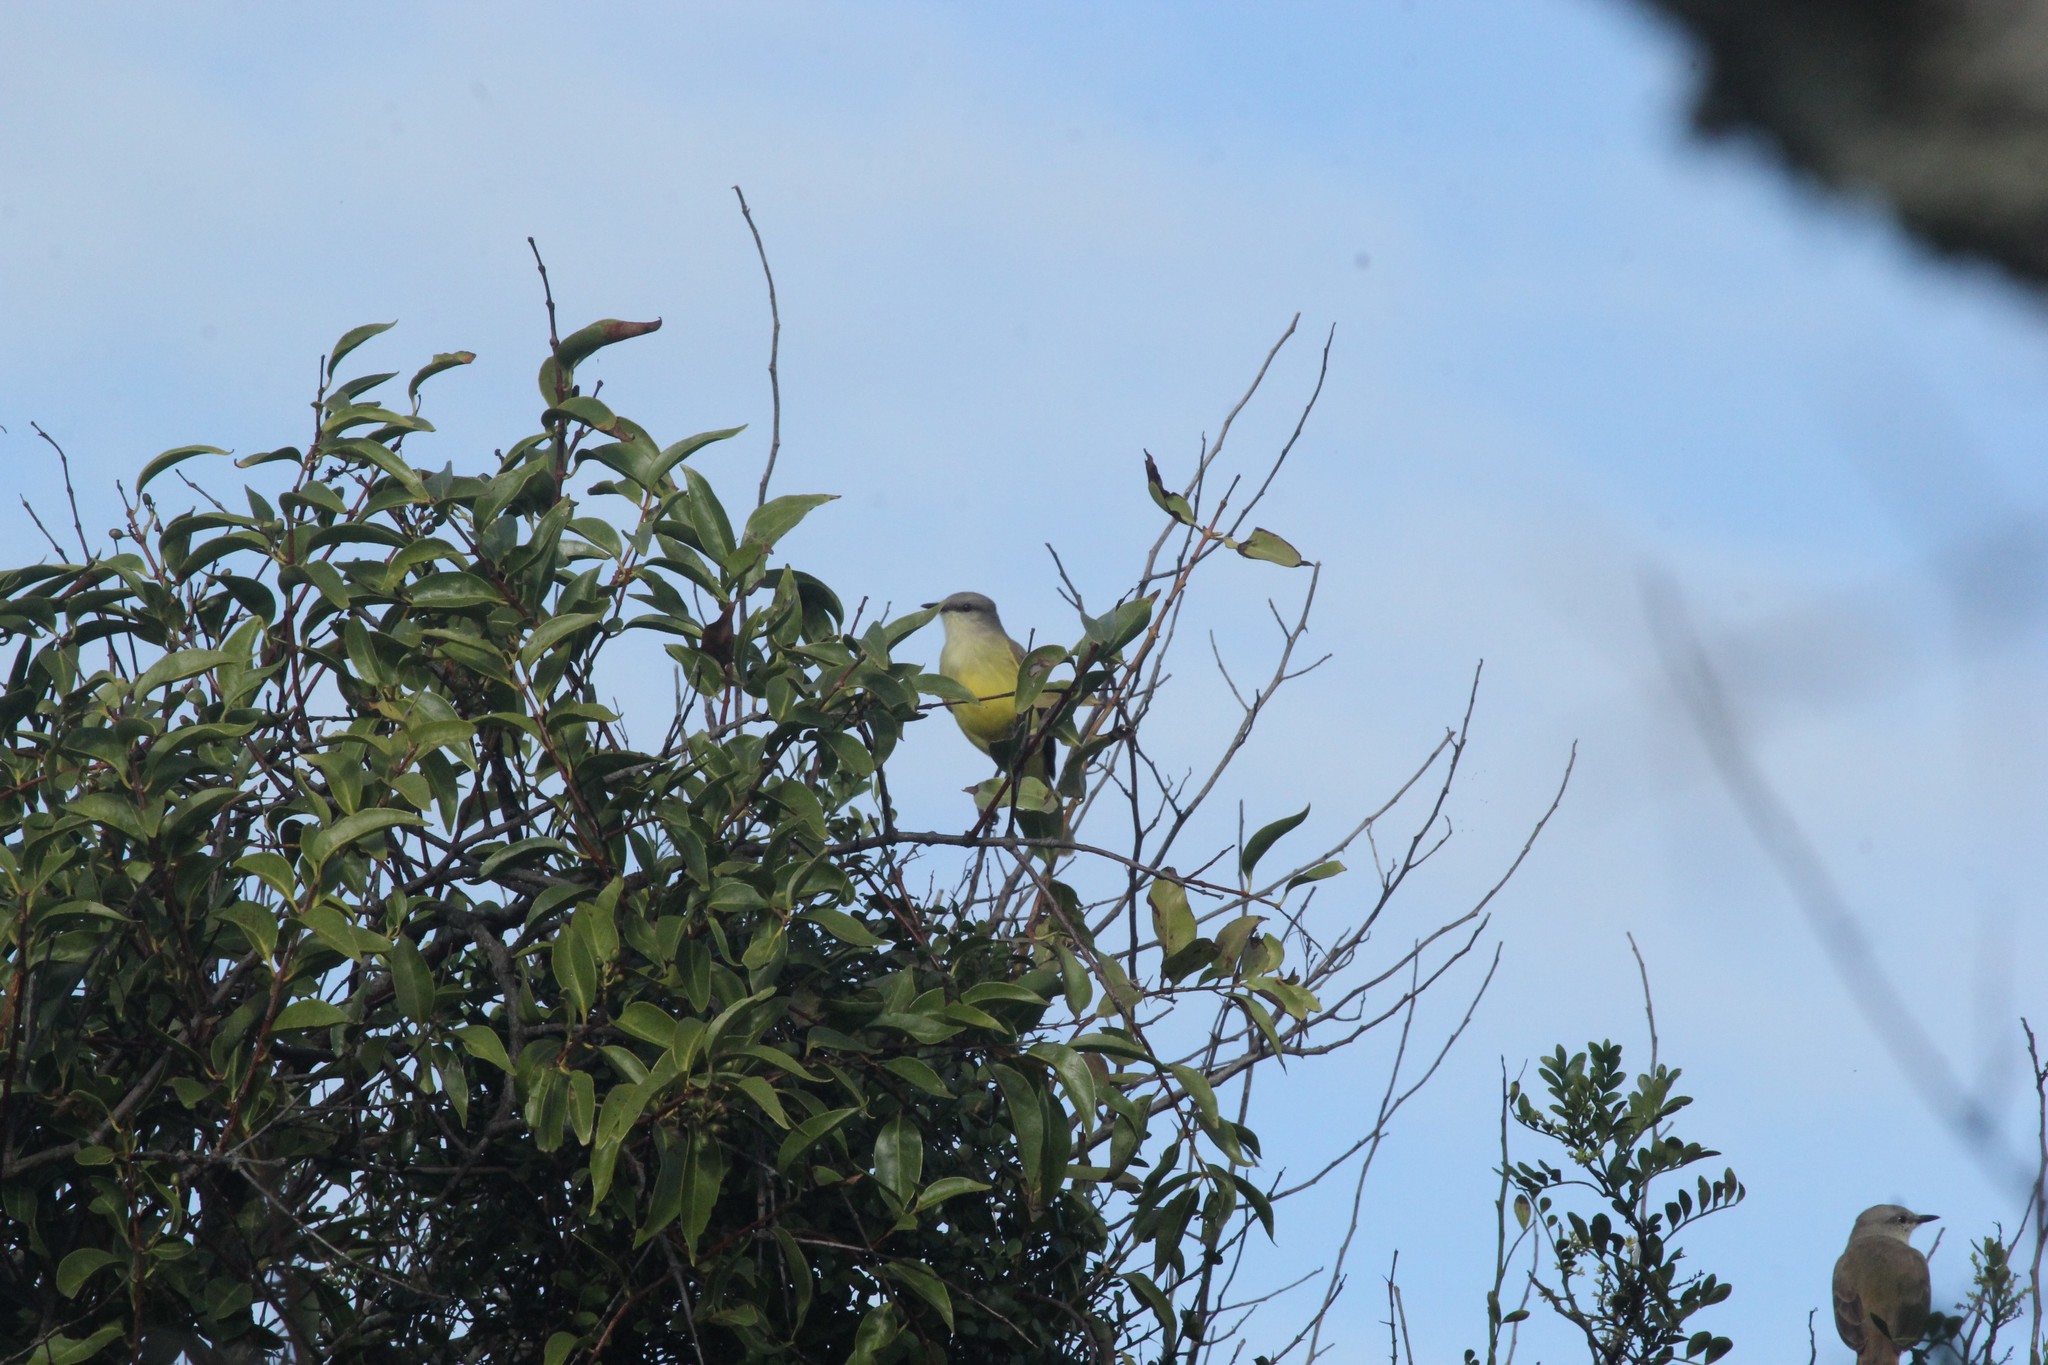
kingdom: Animalia
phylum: Chordata
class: Aves
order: Passeriformes
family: Tyrannidae
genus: Machetornis
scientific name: Machetornis rixosa
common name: Cattle tyrant
